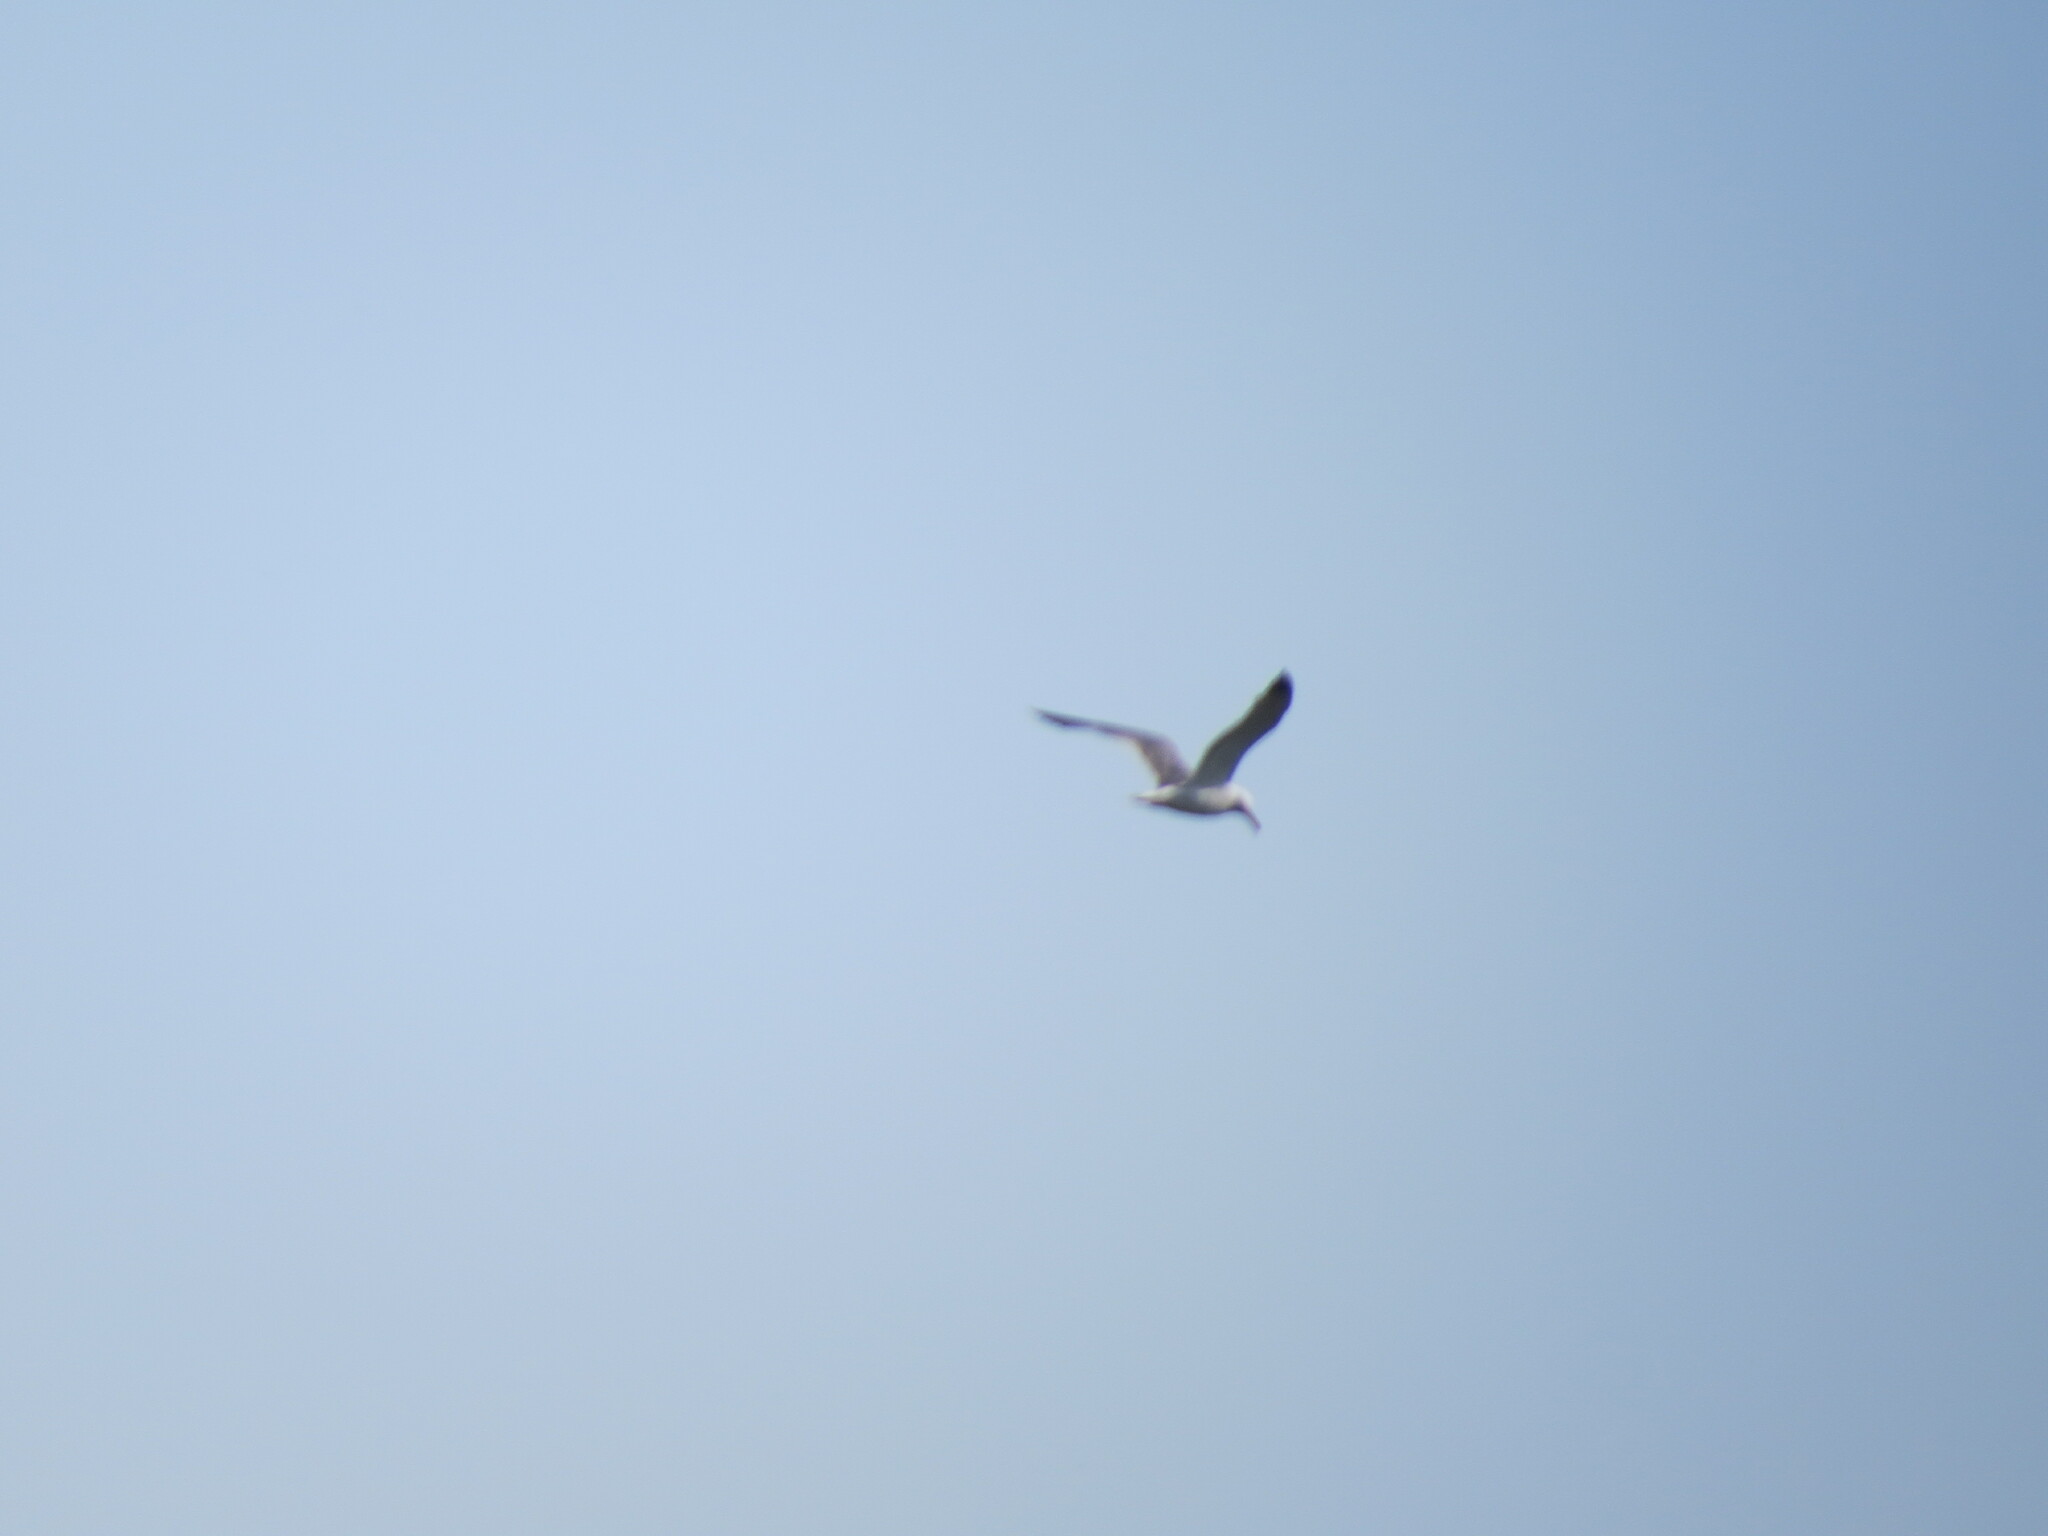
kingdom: Animalia
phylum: Chordata
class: Aves
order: Charadriiformes
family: Laridae
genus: Larus
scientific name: Larus
